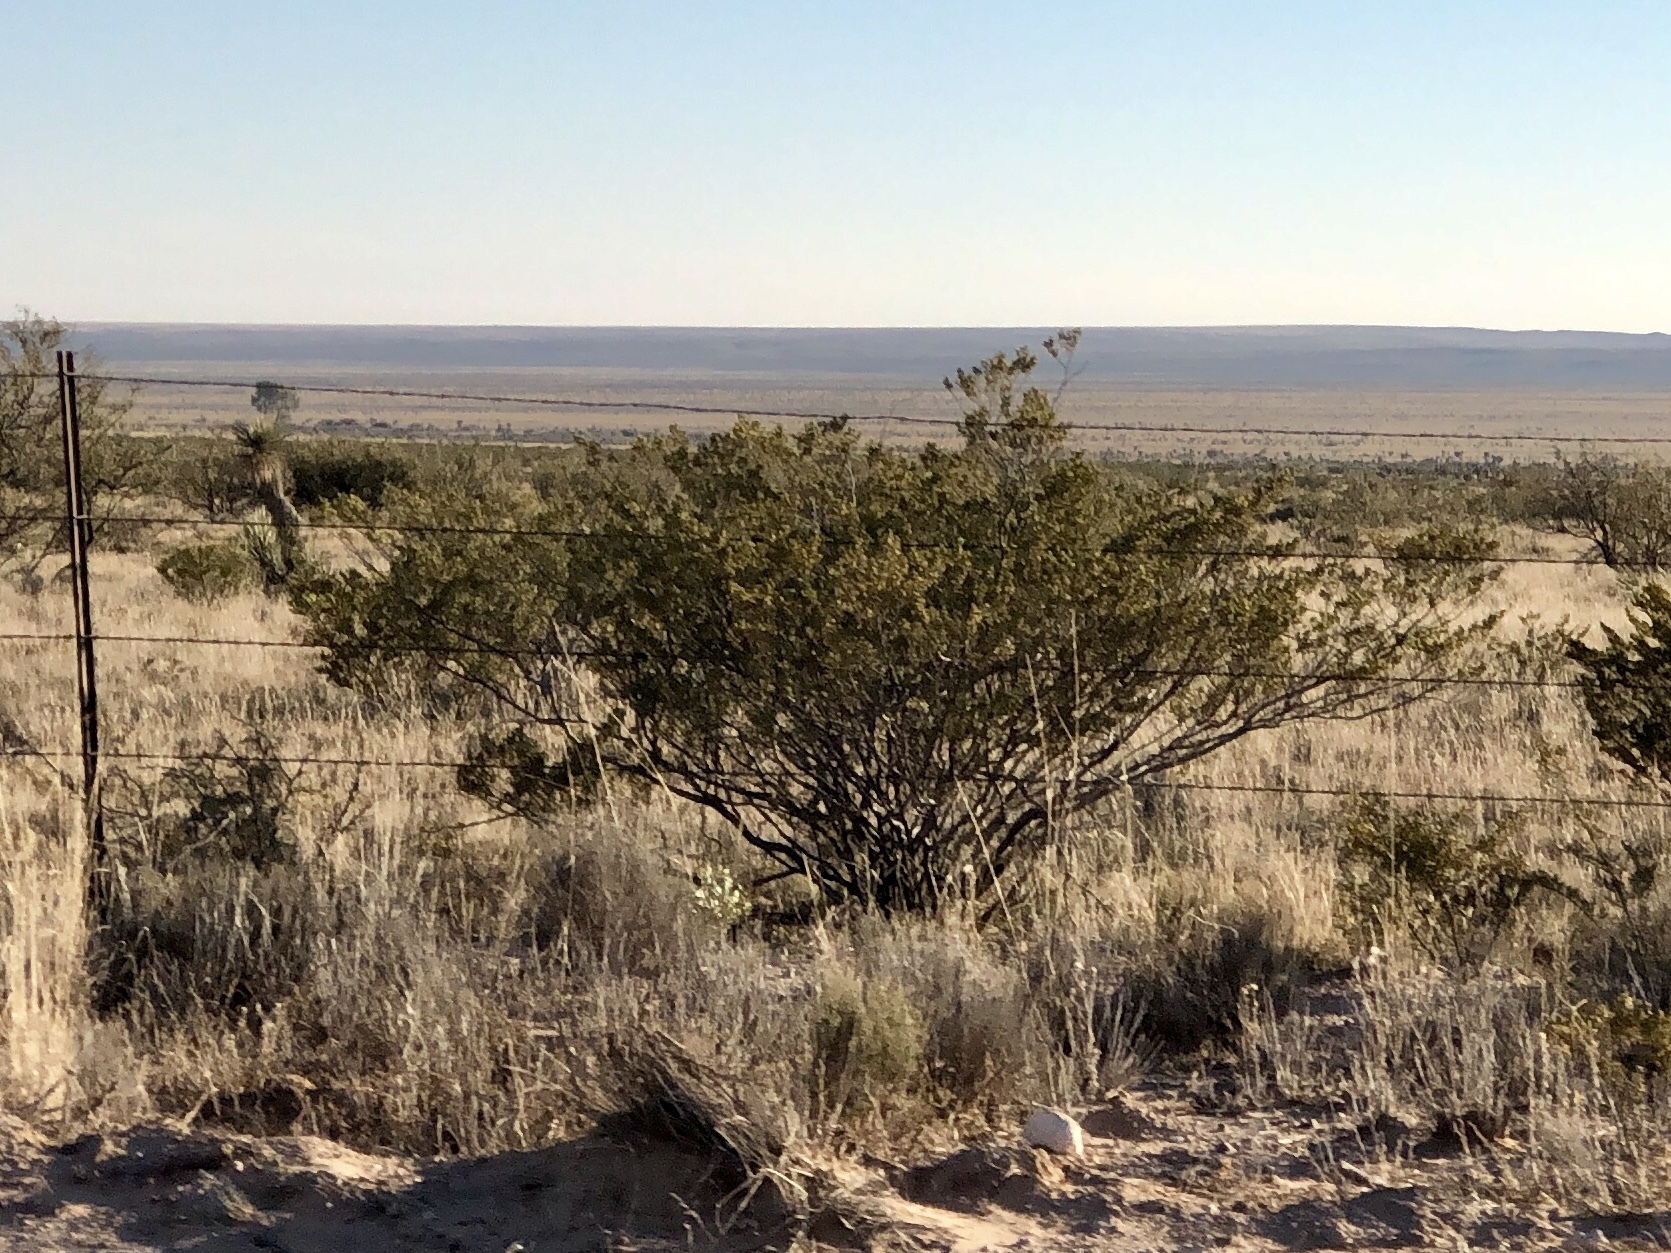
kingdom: Plantae
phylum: Tracheophyta
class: Magnoliopsida
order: Zygophyllales
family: Zygophyllaceae
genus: Larrea
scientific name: Larrea tridentata
